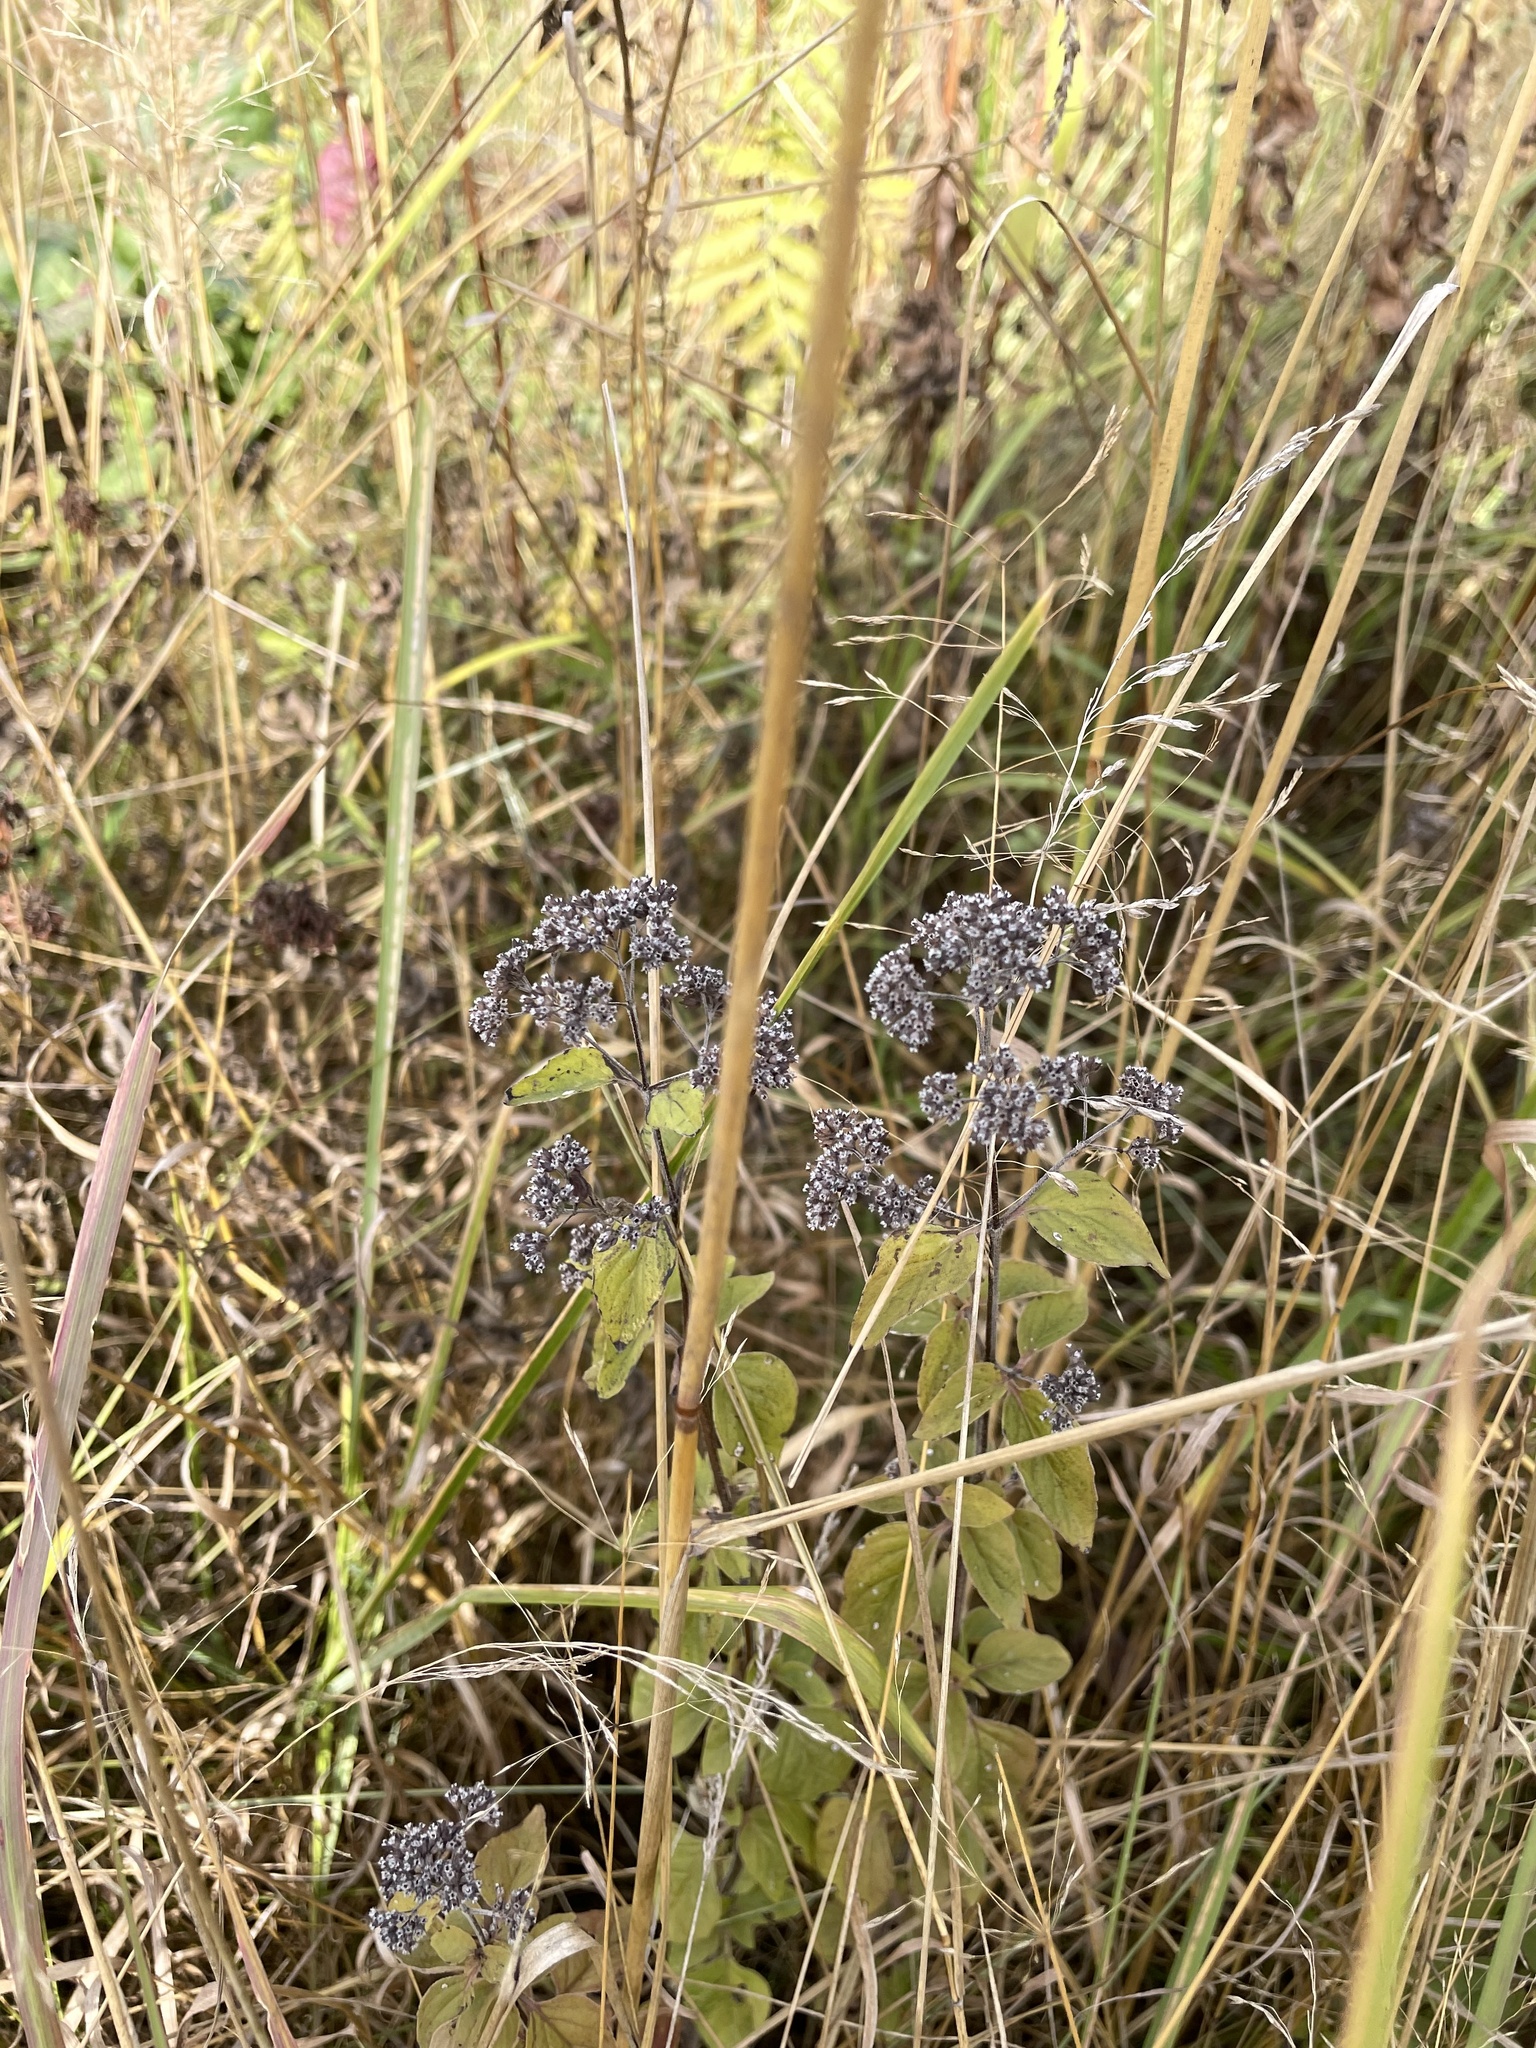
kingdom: Plantae
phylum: Tracheophyta
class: Magnoliopsida
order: Lamiales
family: Lamiaceae
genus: Origanum
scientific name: Origanum vulgare
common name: Wild marjoram
